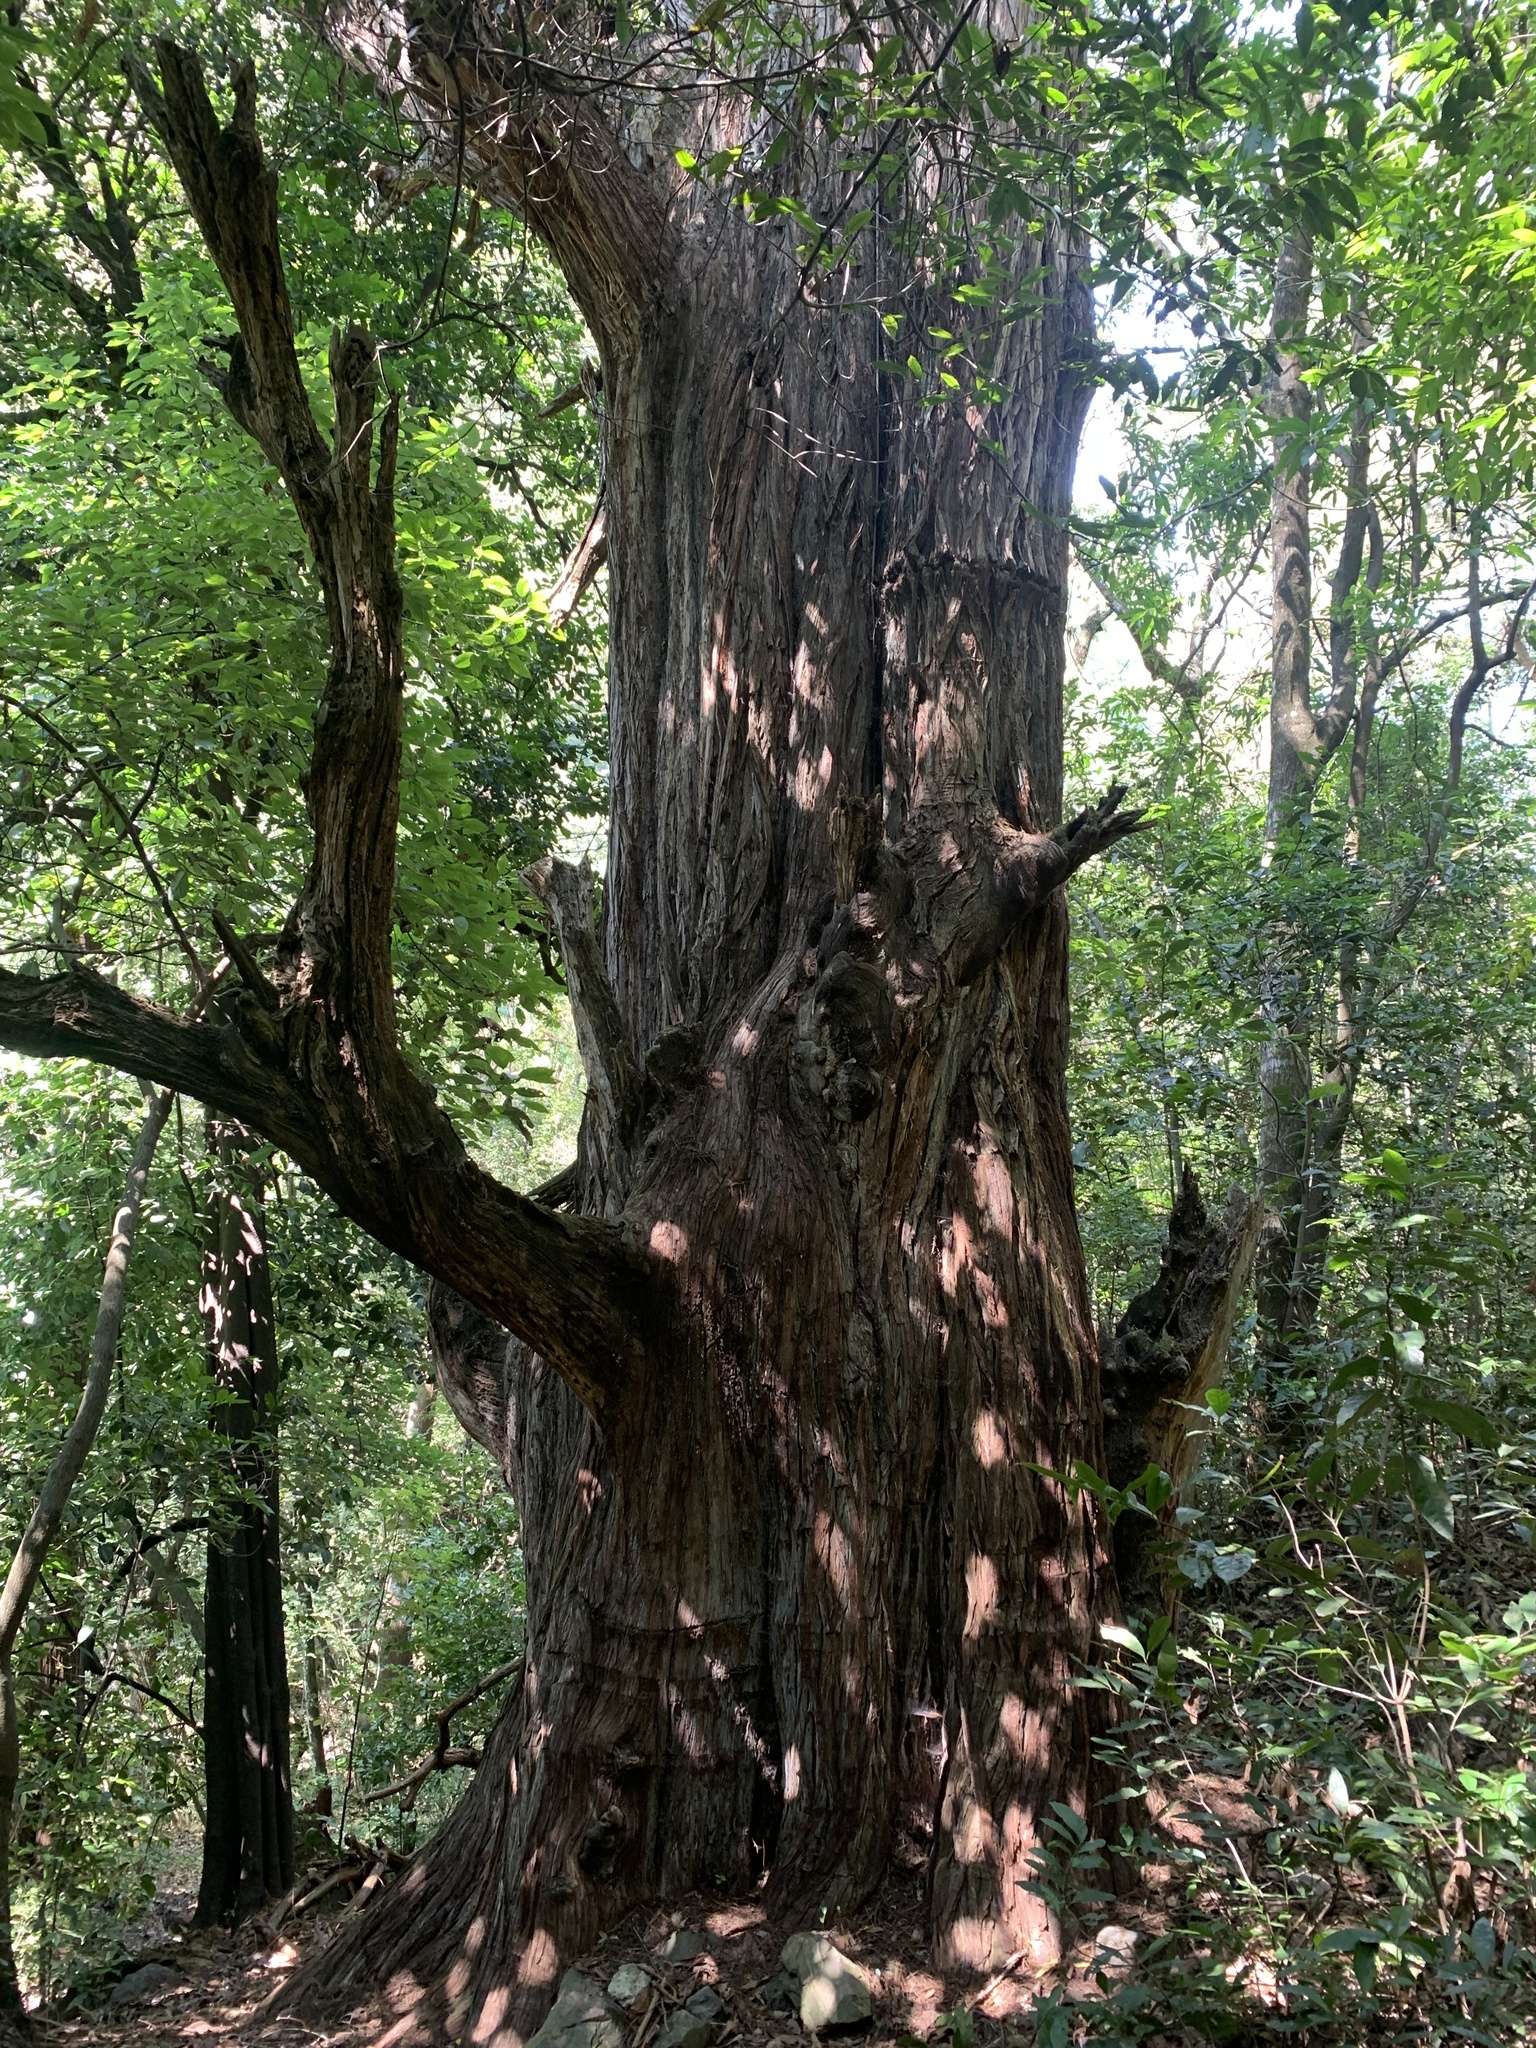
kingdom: Plantae
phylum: Tracheophyta
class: Pinopsida
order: Pinales
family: Cupressaceae
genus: Taxodium
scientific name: Taxodium mucronatum
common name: Montezume bald cypress
